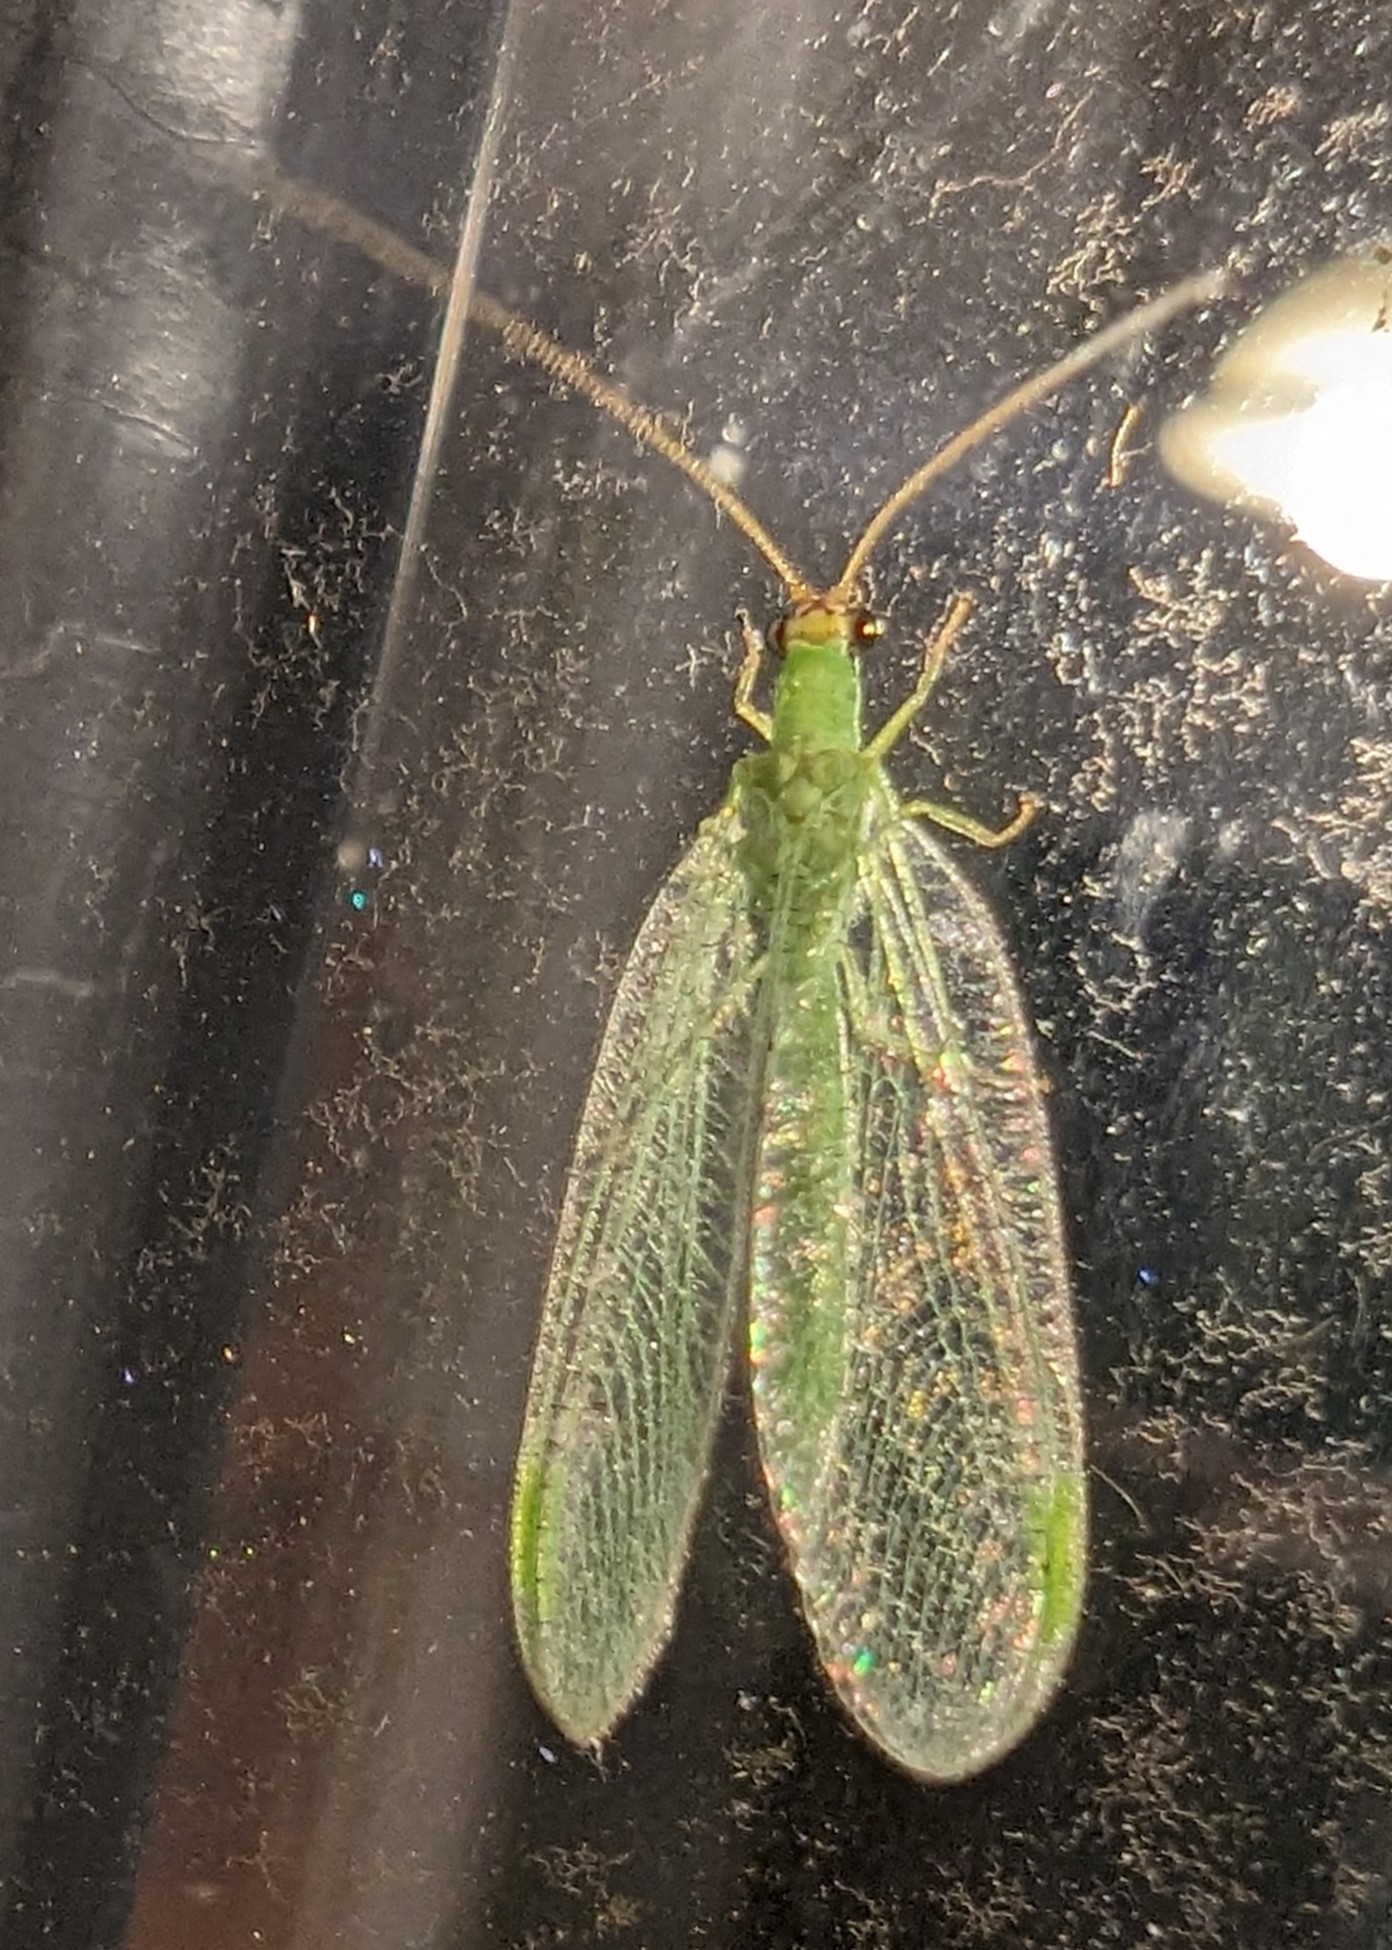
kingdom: Animalia
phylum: Arthropoda
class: Insecta
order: Neuroptera
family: Chrysopidae
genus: Chrysopa
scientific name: Chrysopa oculata
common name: Golden-eyed lacewing
